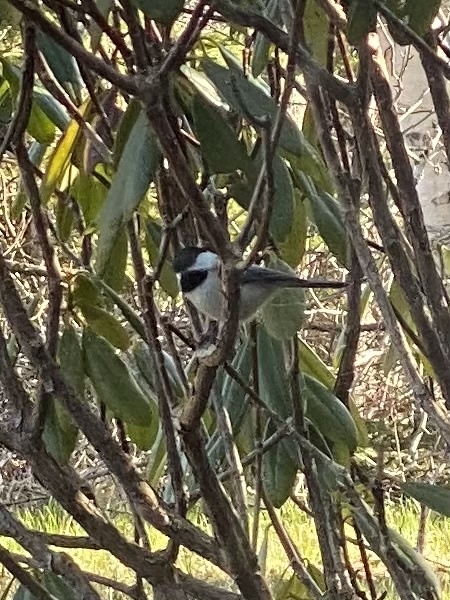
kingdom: Animalia
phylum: Chordata
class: Aves
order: Passeriformes
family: Paridae
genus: Poecile
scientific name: Poecile atricapillus
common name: Black-capped chickadee
